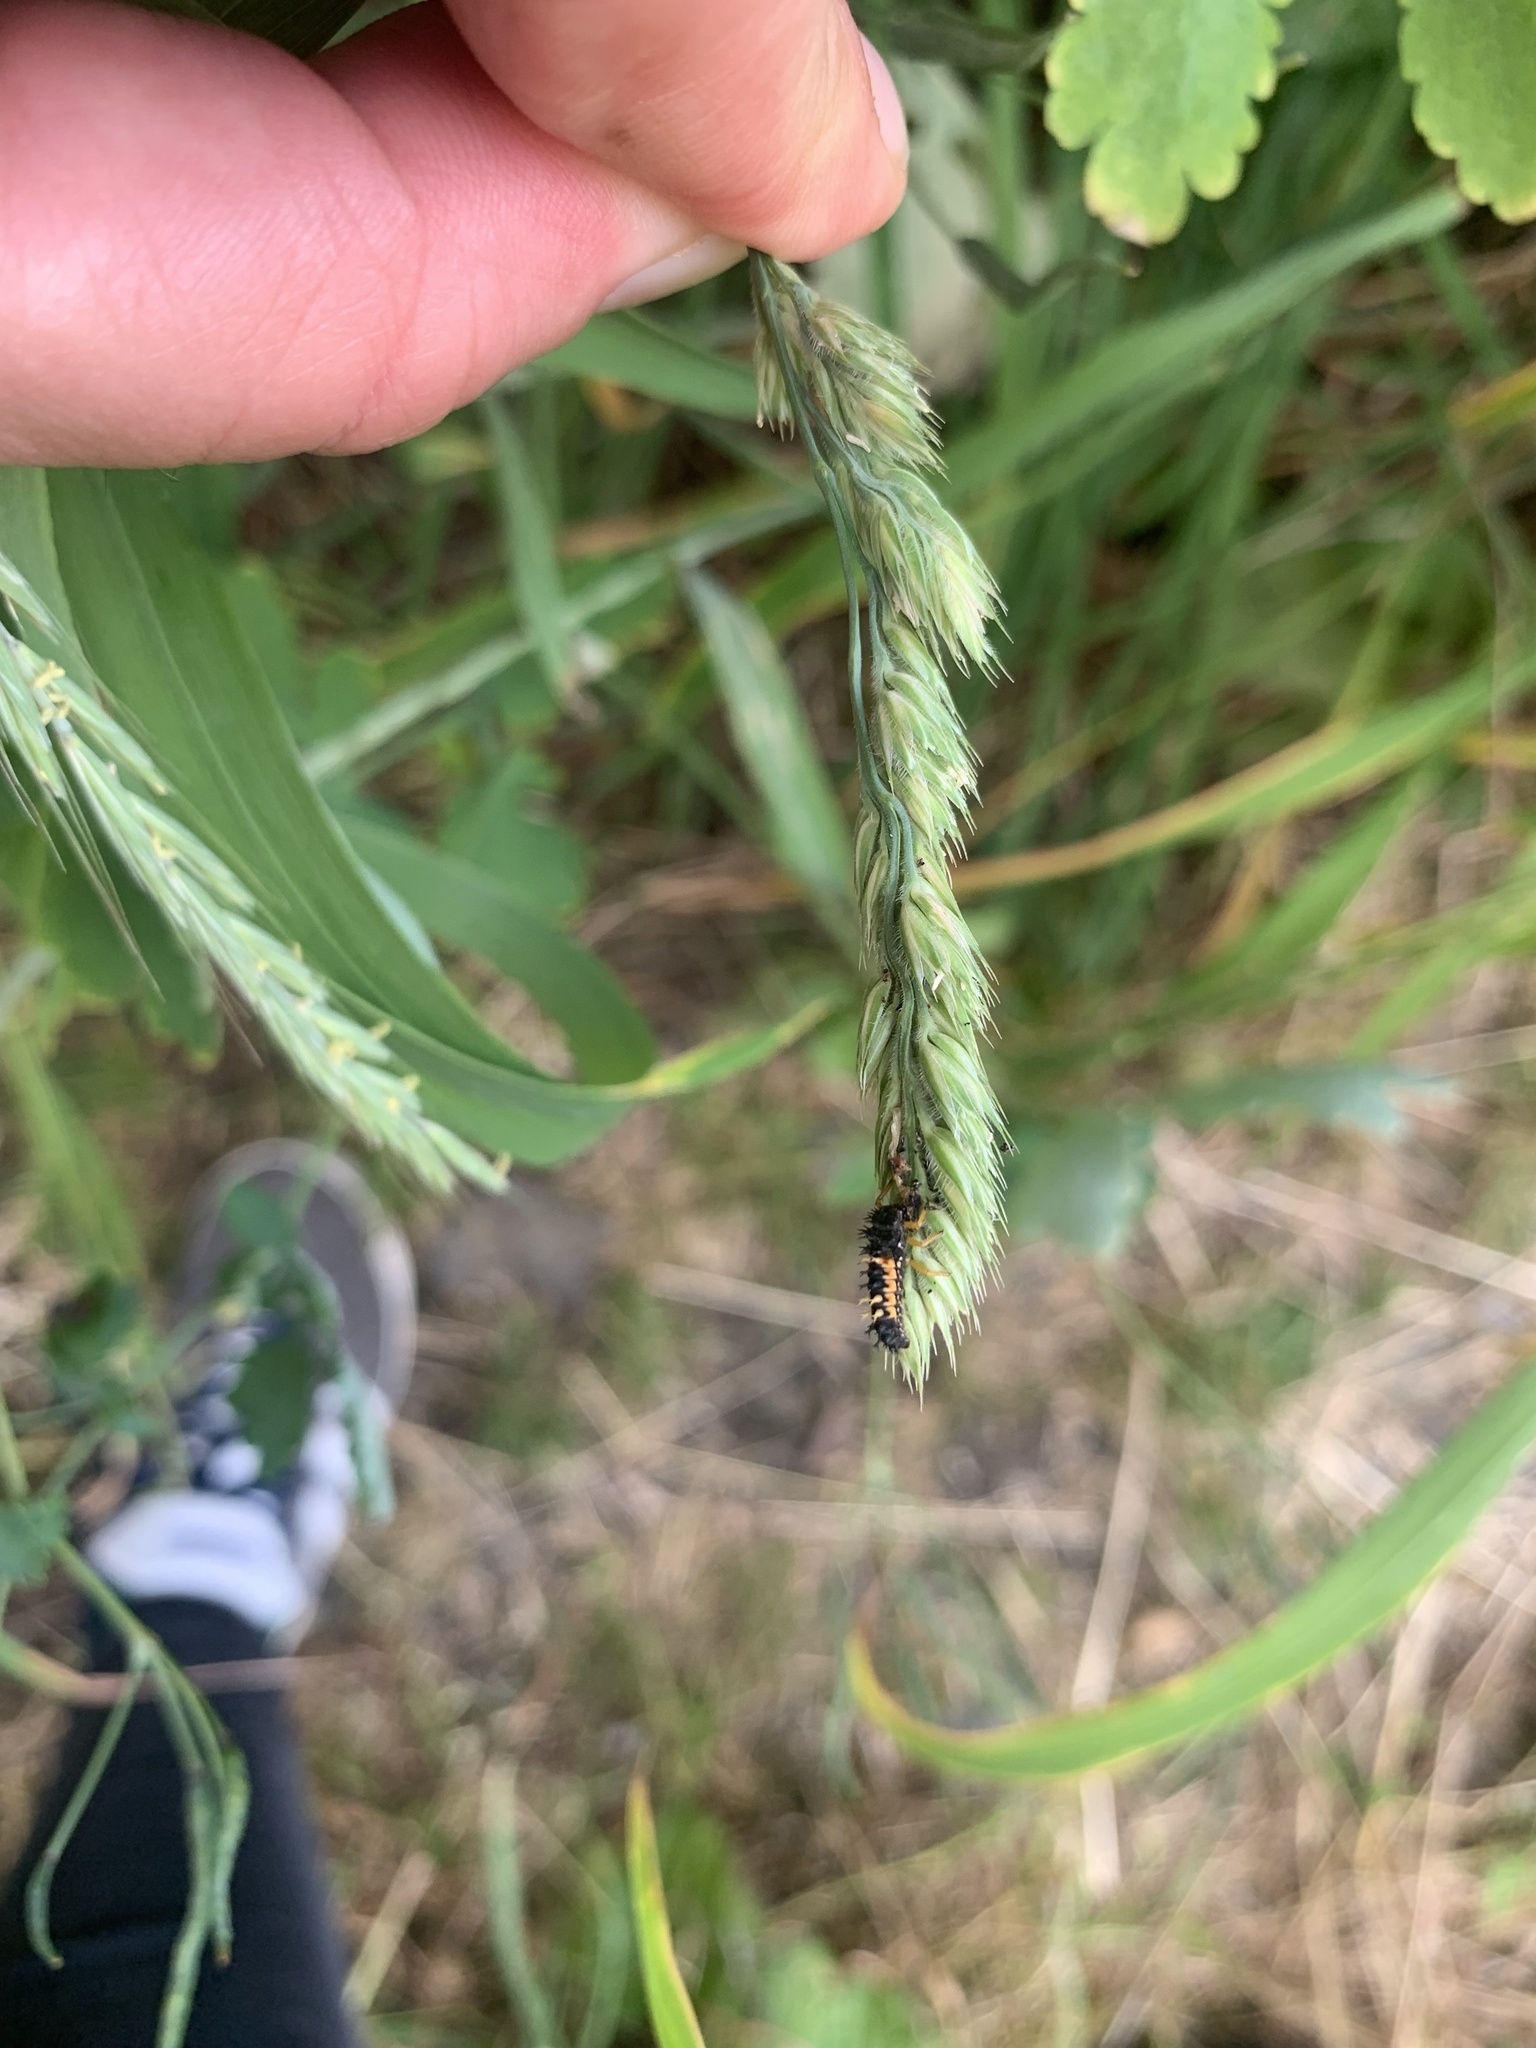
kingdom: Animalia
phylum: Arthropoda
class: Insecta
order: Coleoptera
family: Coccinellidae
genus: Harmonia
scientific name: Harmonia axyridis
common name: Harlequin ladybird
